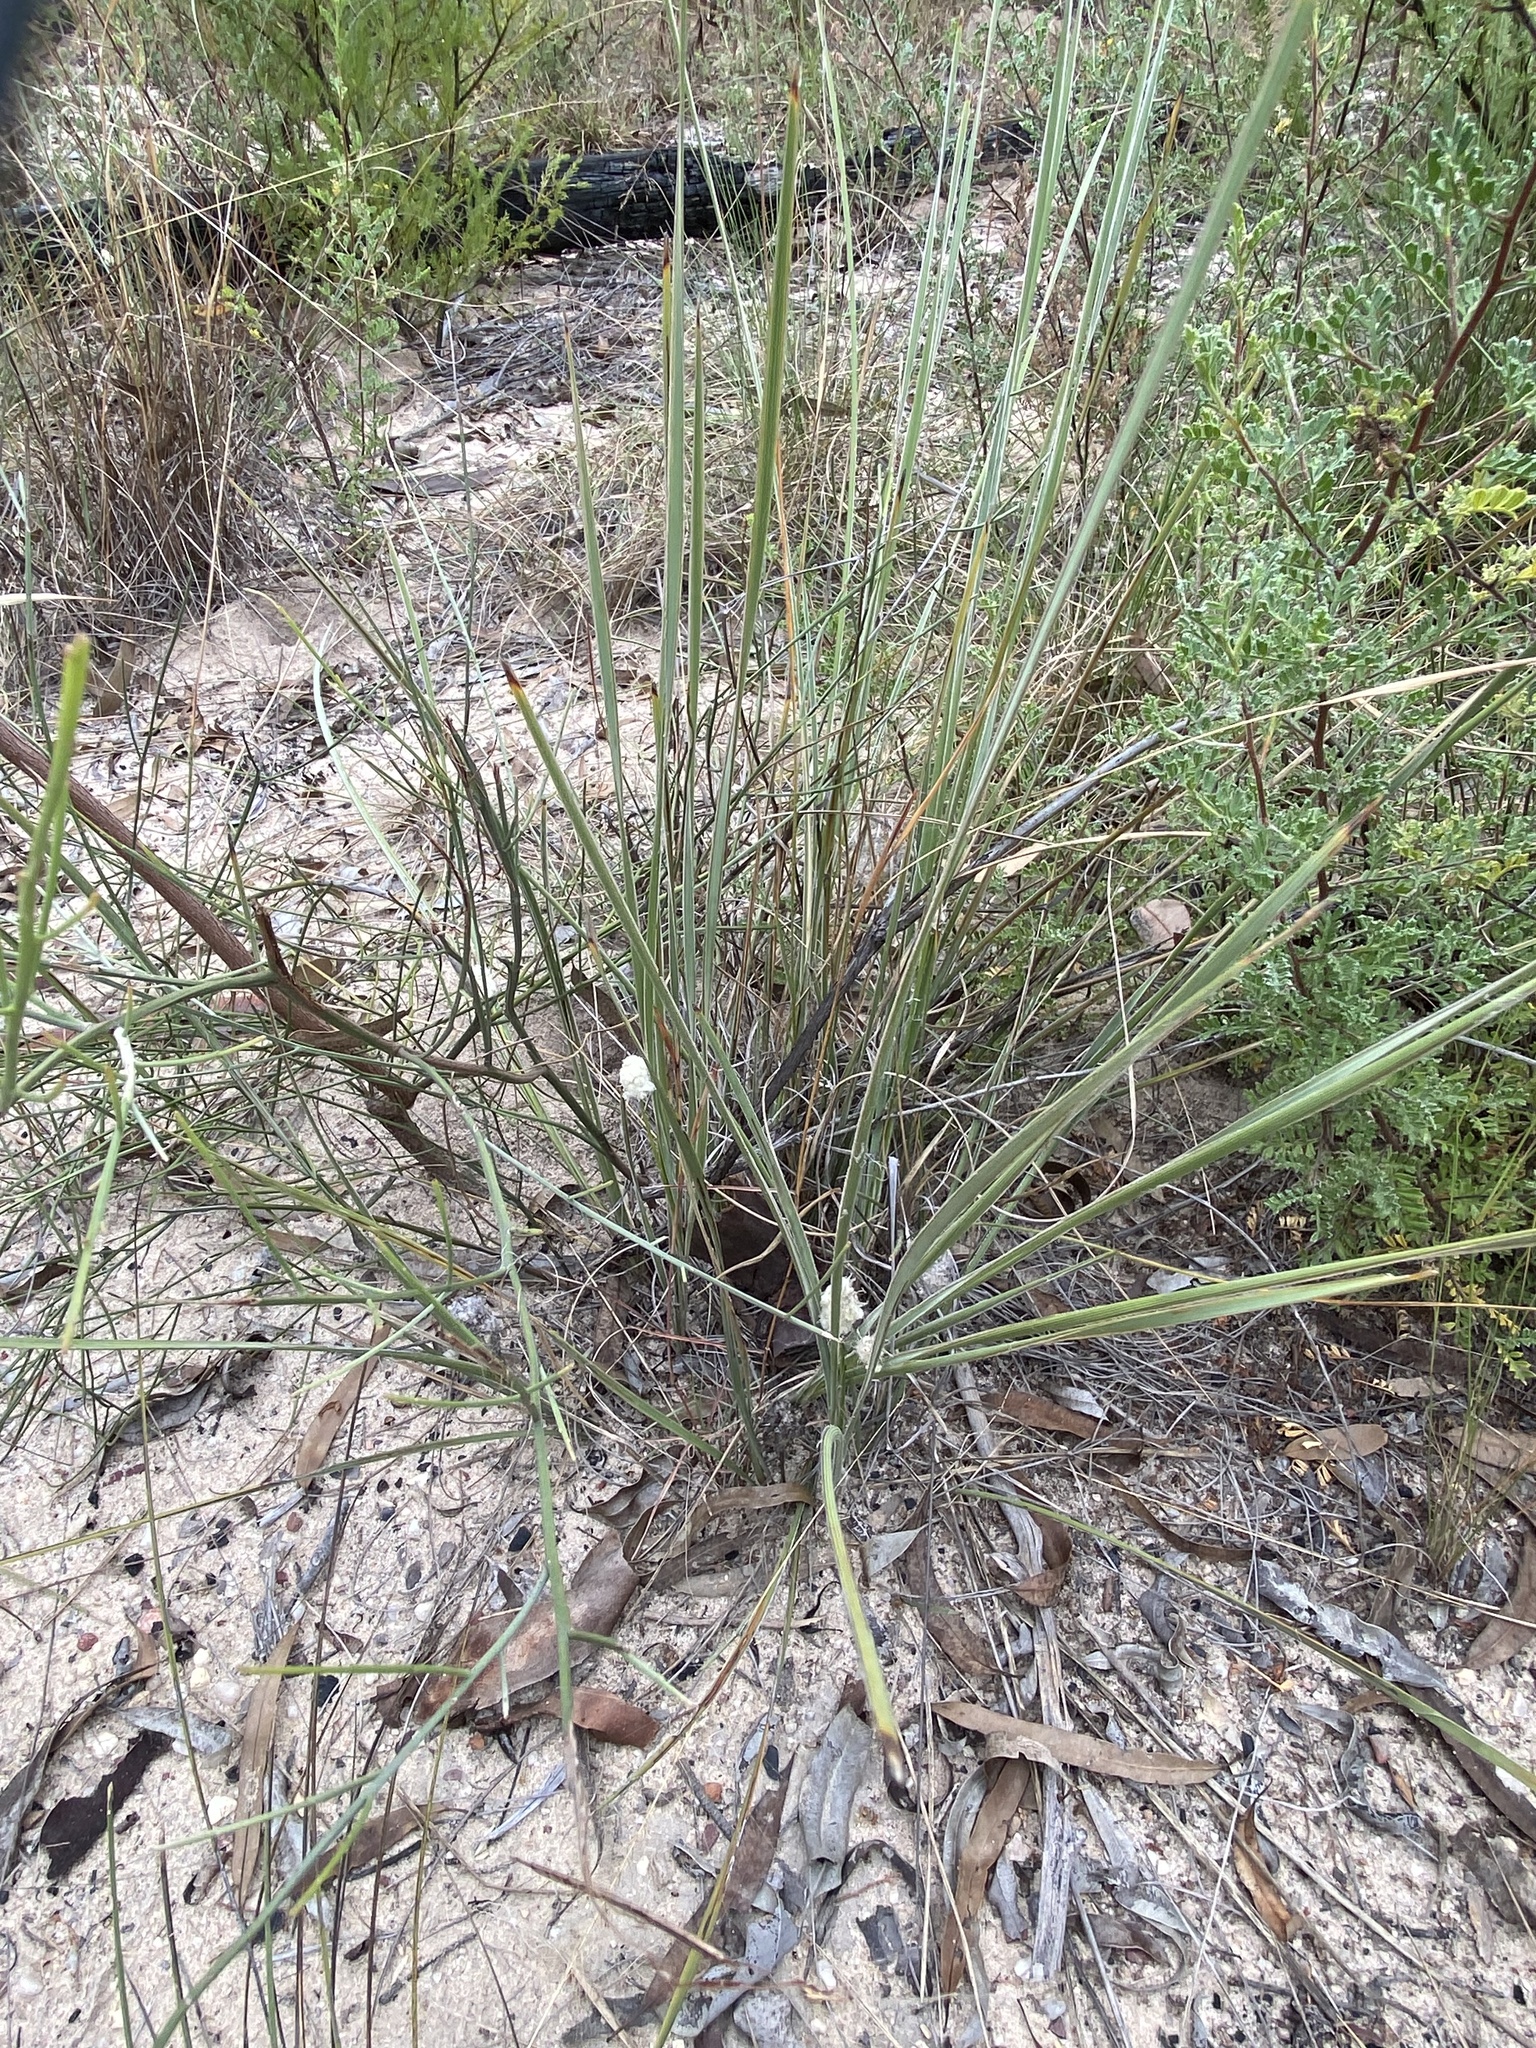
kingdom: Plantae
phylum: Tracheophyta
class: Liliopsida
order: Asparagales
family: Asparagaceae
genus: Lomandra
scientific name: Lomandra leucocephala
